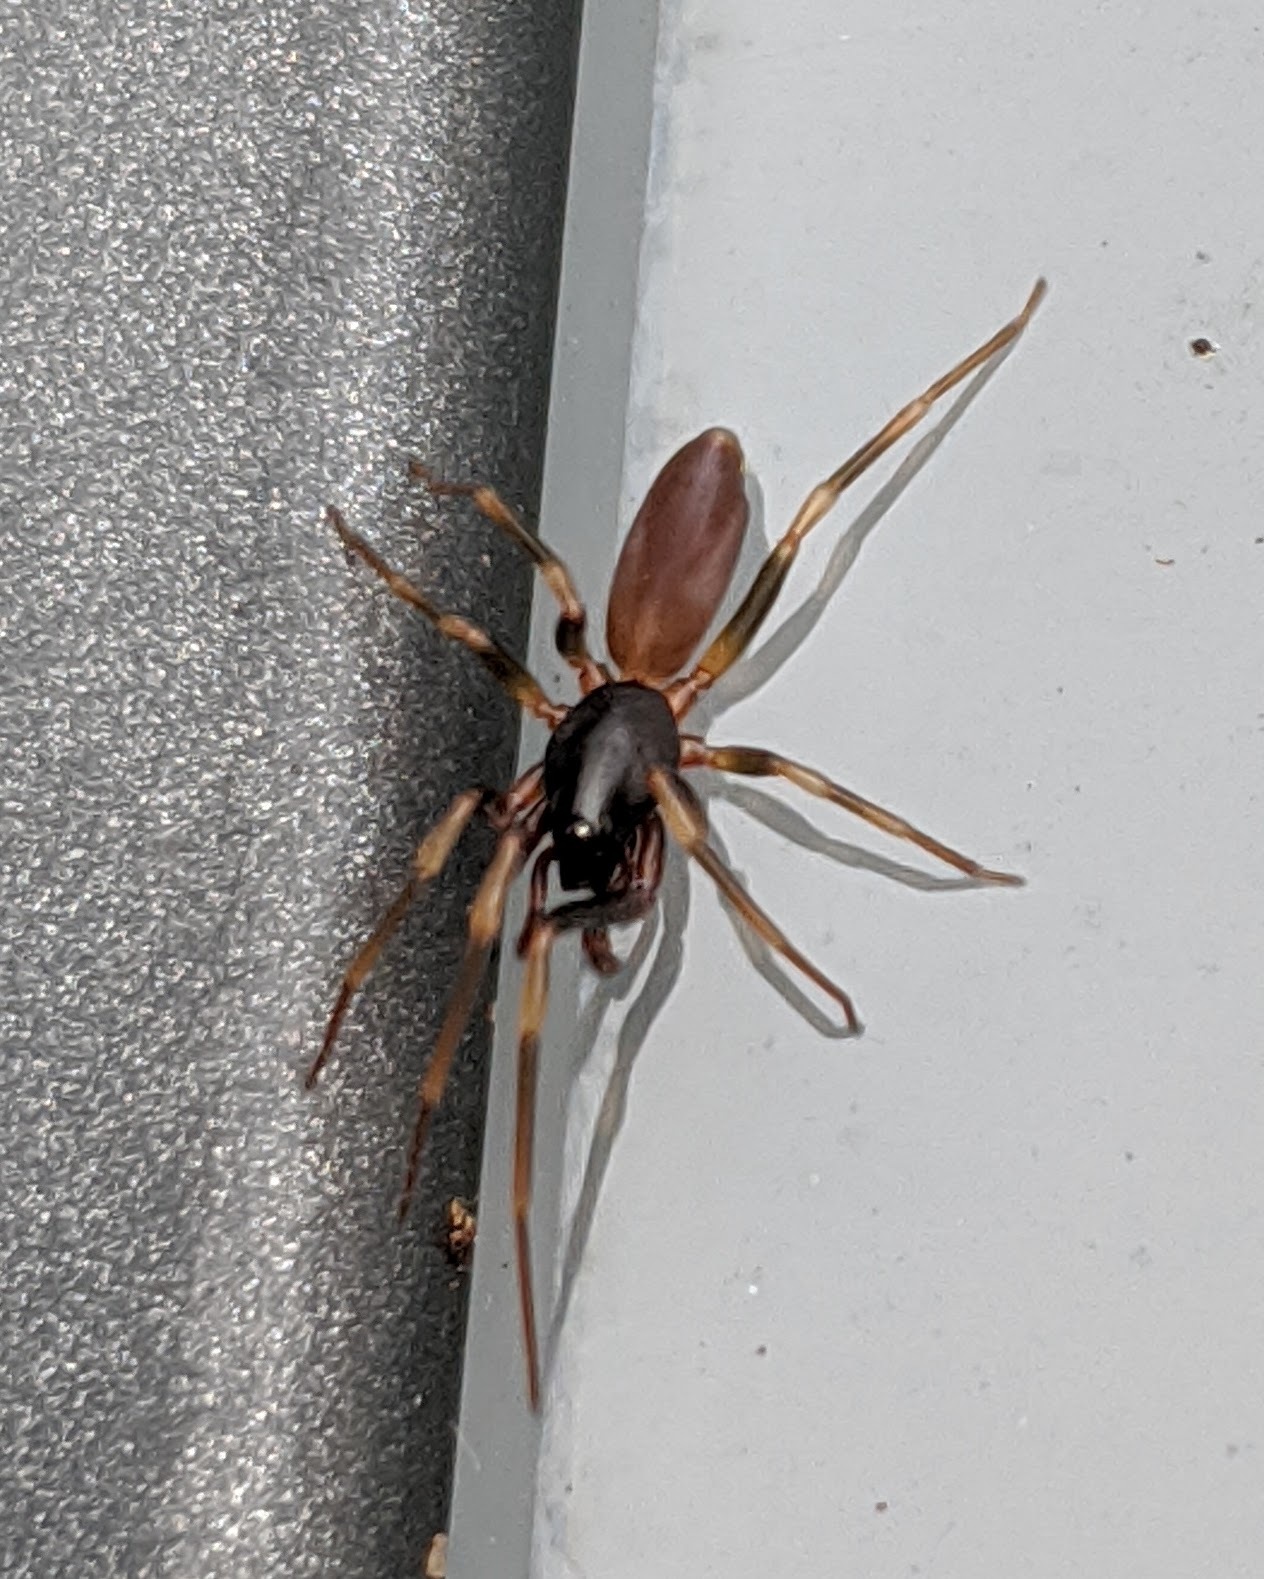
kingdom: Animalia
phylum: Arthropoda
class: Arachnida
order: Araneae
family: Dysderidae
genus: Harpactea
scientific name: Harpactea hombergi
